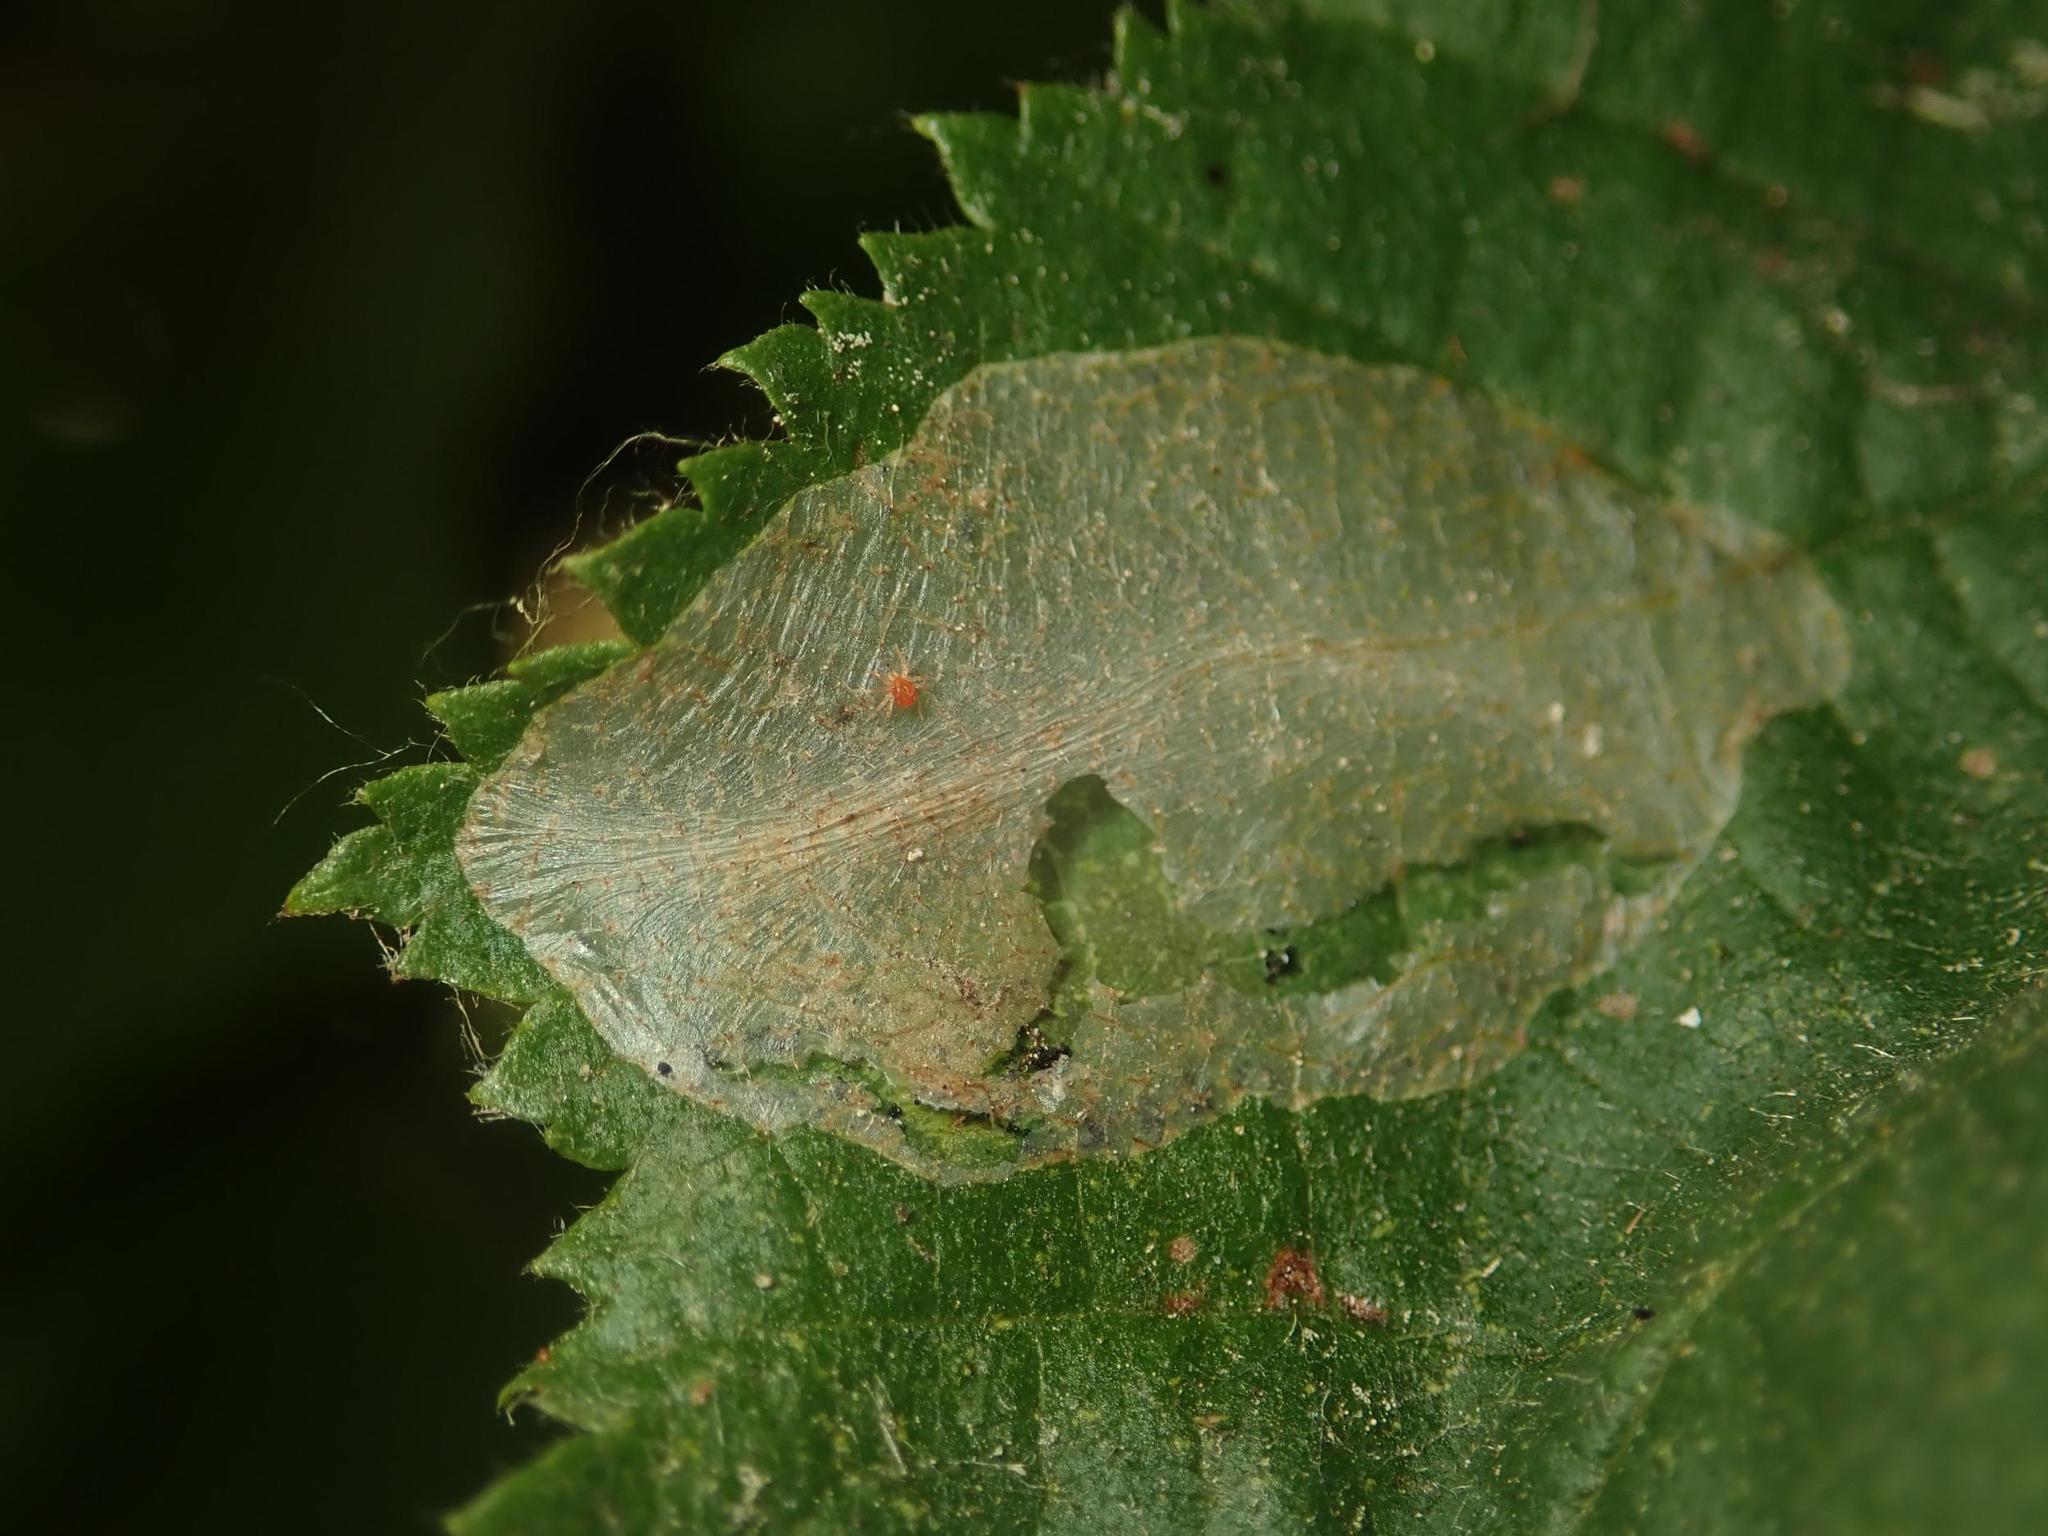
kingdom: Animalia
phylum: Arthropoda
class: Insecta
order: Lepidoptera
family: Gracillariidae
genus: Phyllonorycter
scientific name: Phyllonorycter coryli
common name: Nut-leaf blister moth
